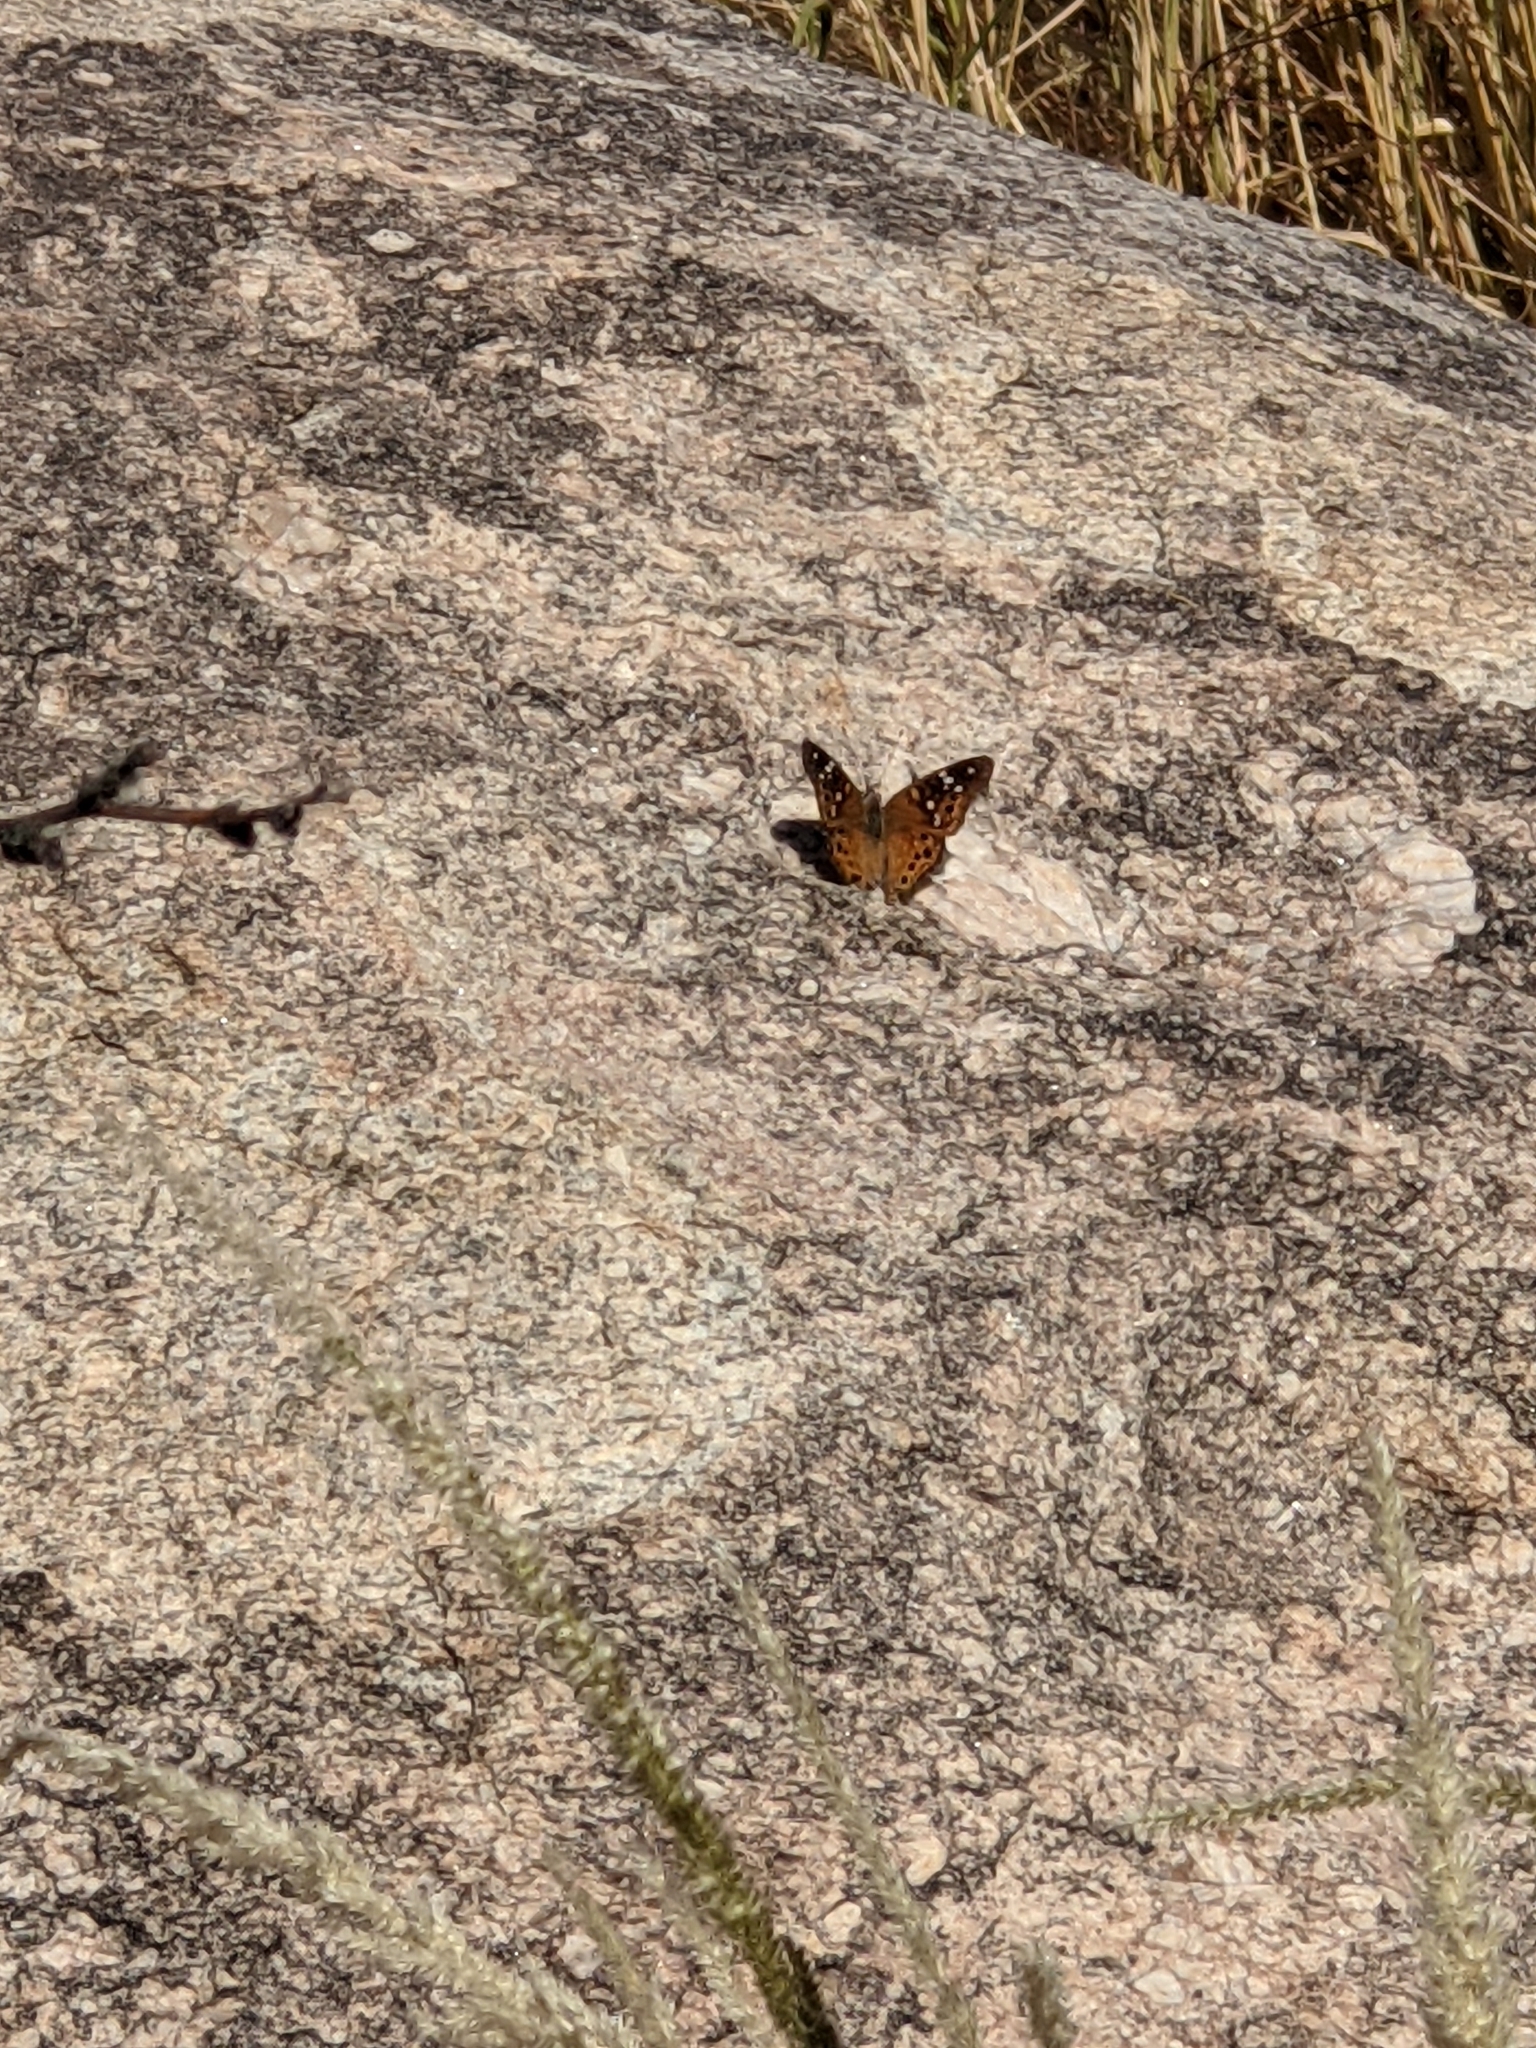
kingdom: Animalia
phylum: Arthropoda
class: Insecta
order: Lepidoptera
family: Nymphalidae
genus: Asterocampa
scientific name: Asterocampa leilia
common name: Empress leilia
